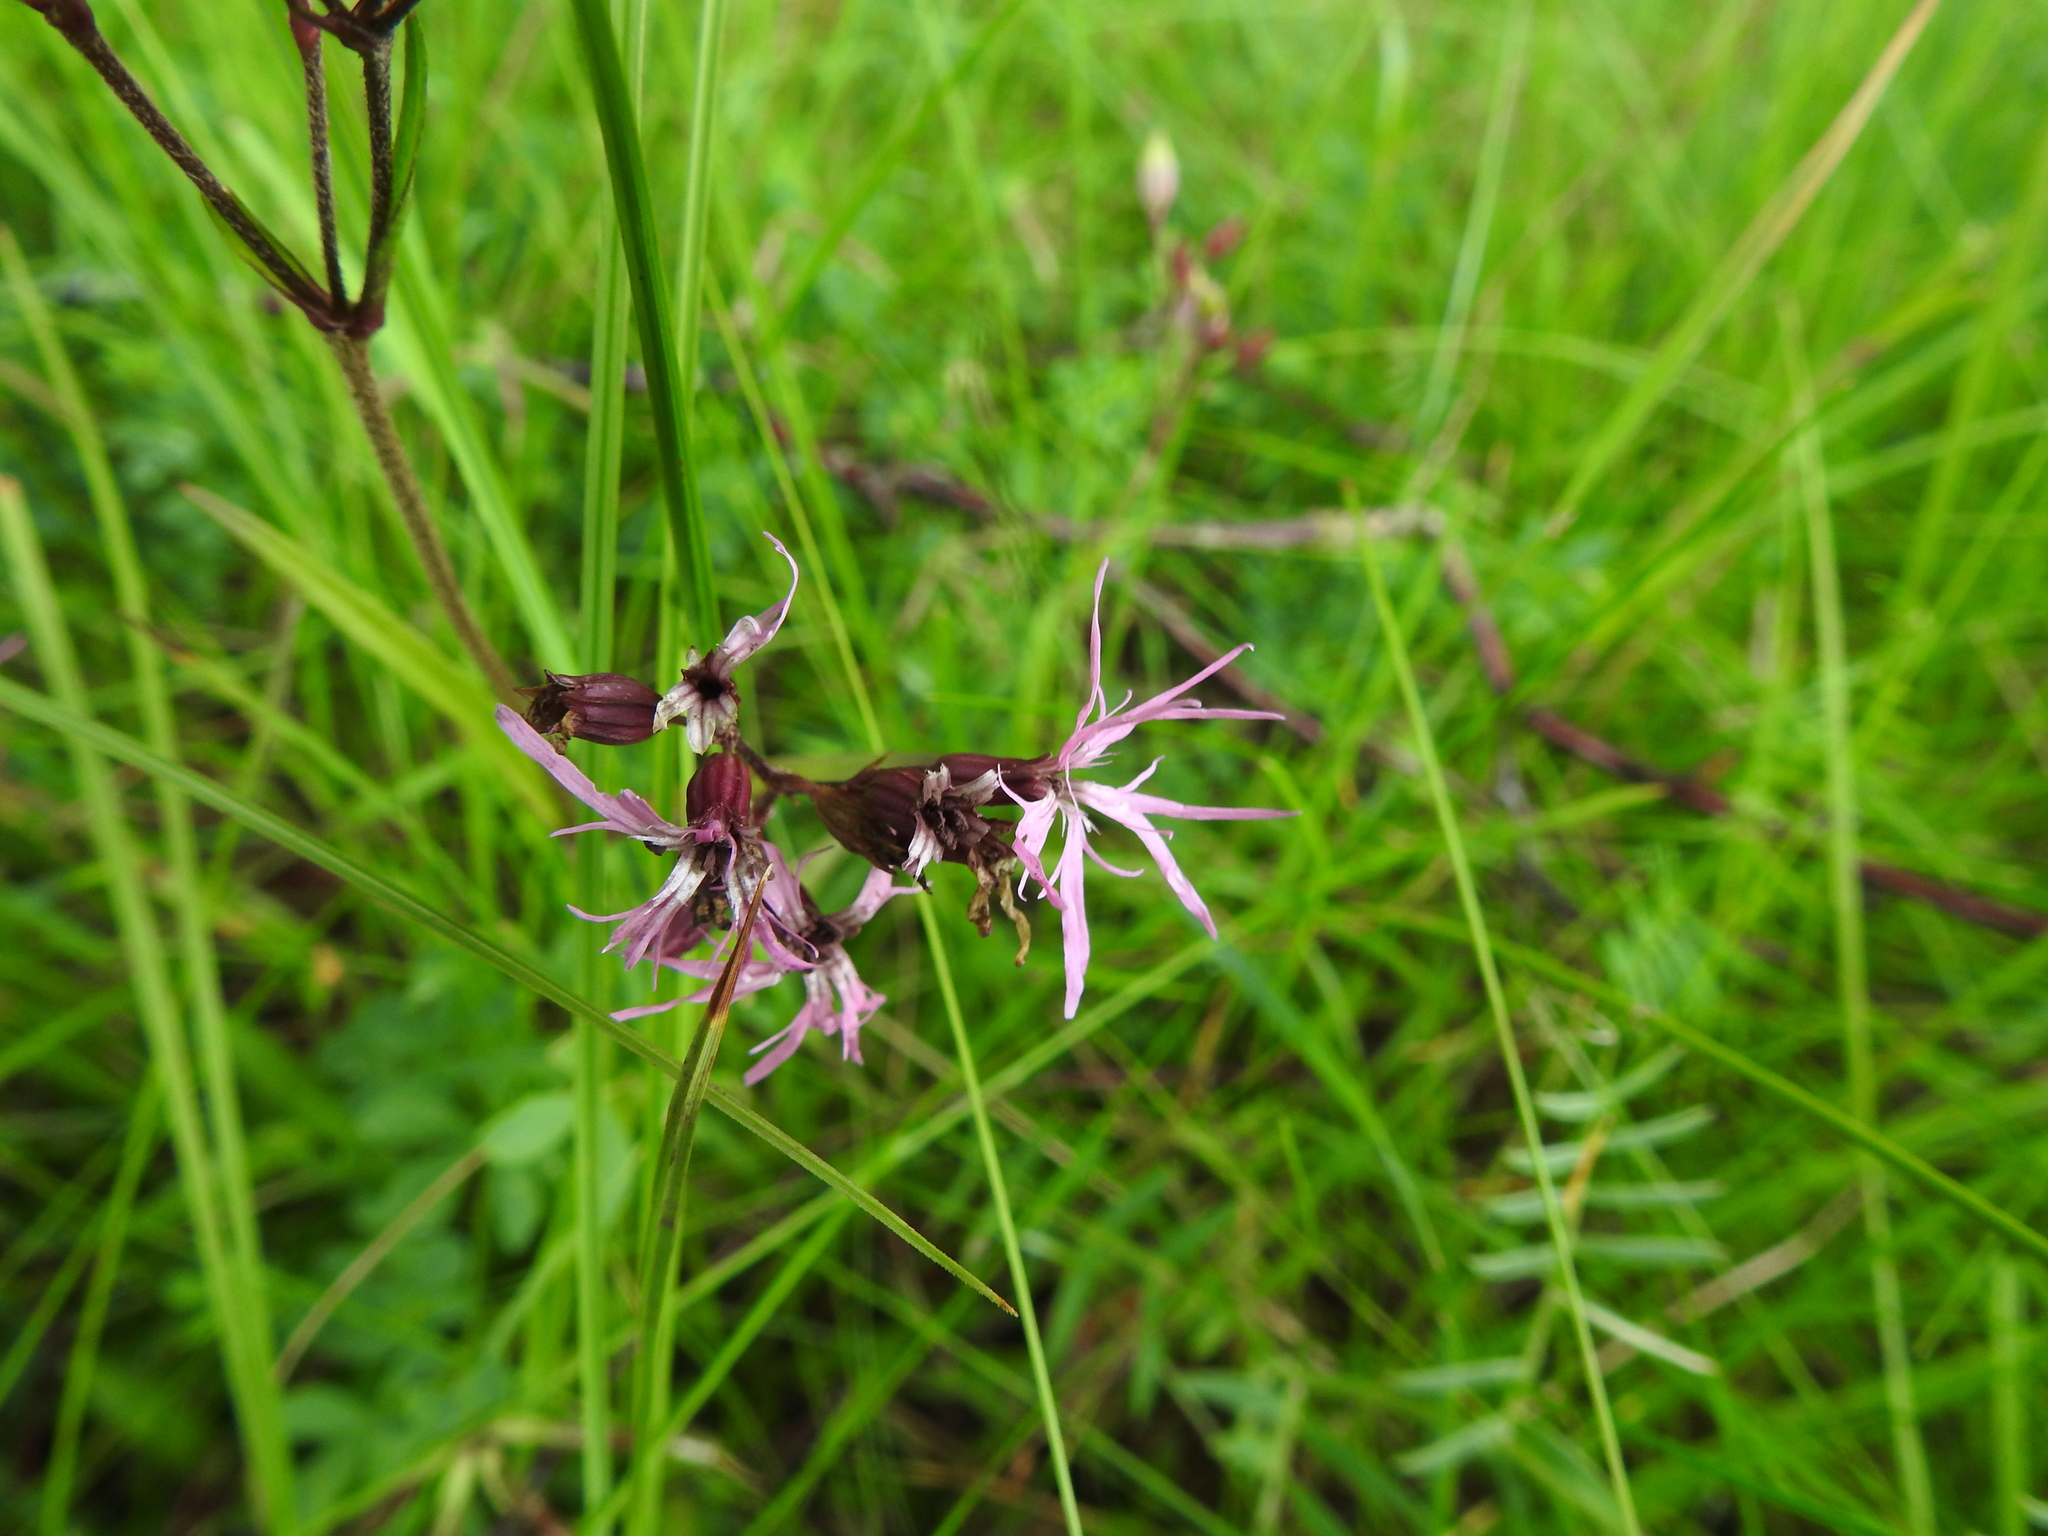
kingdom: Plantae
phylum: Tracheophyta
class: Magnoliopsida
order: Caryophyllales
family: Caryophyllaceae
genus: Silene
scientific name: Silene flos-cuculi
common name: Ragged-robin
